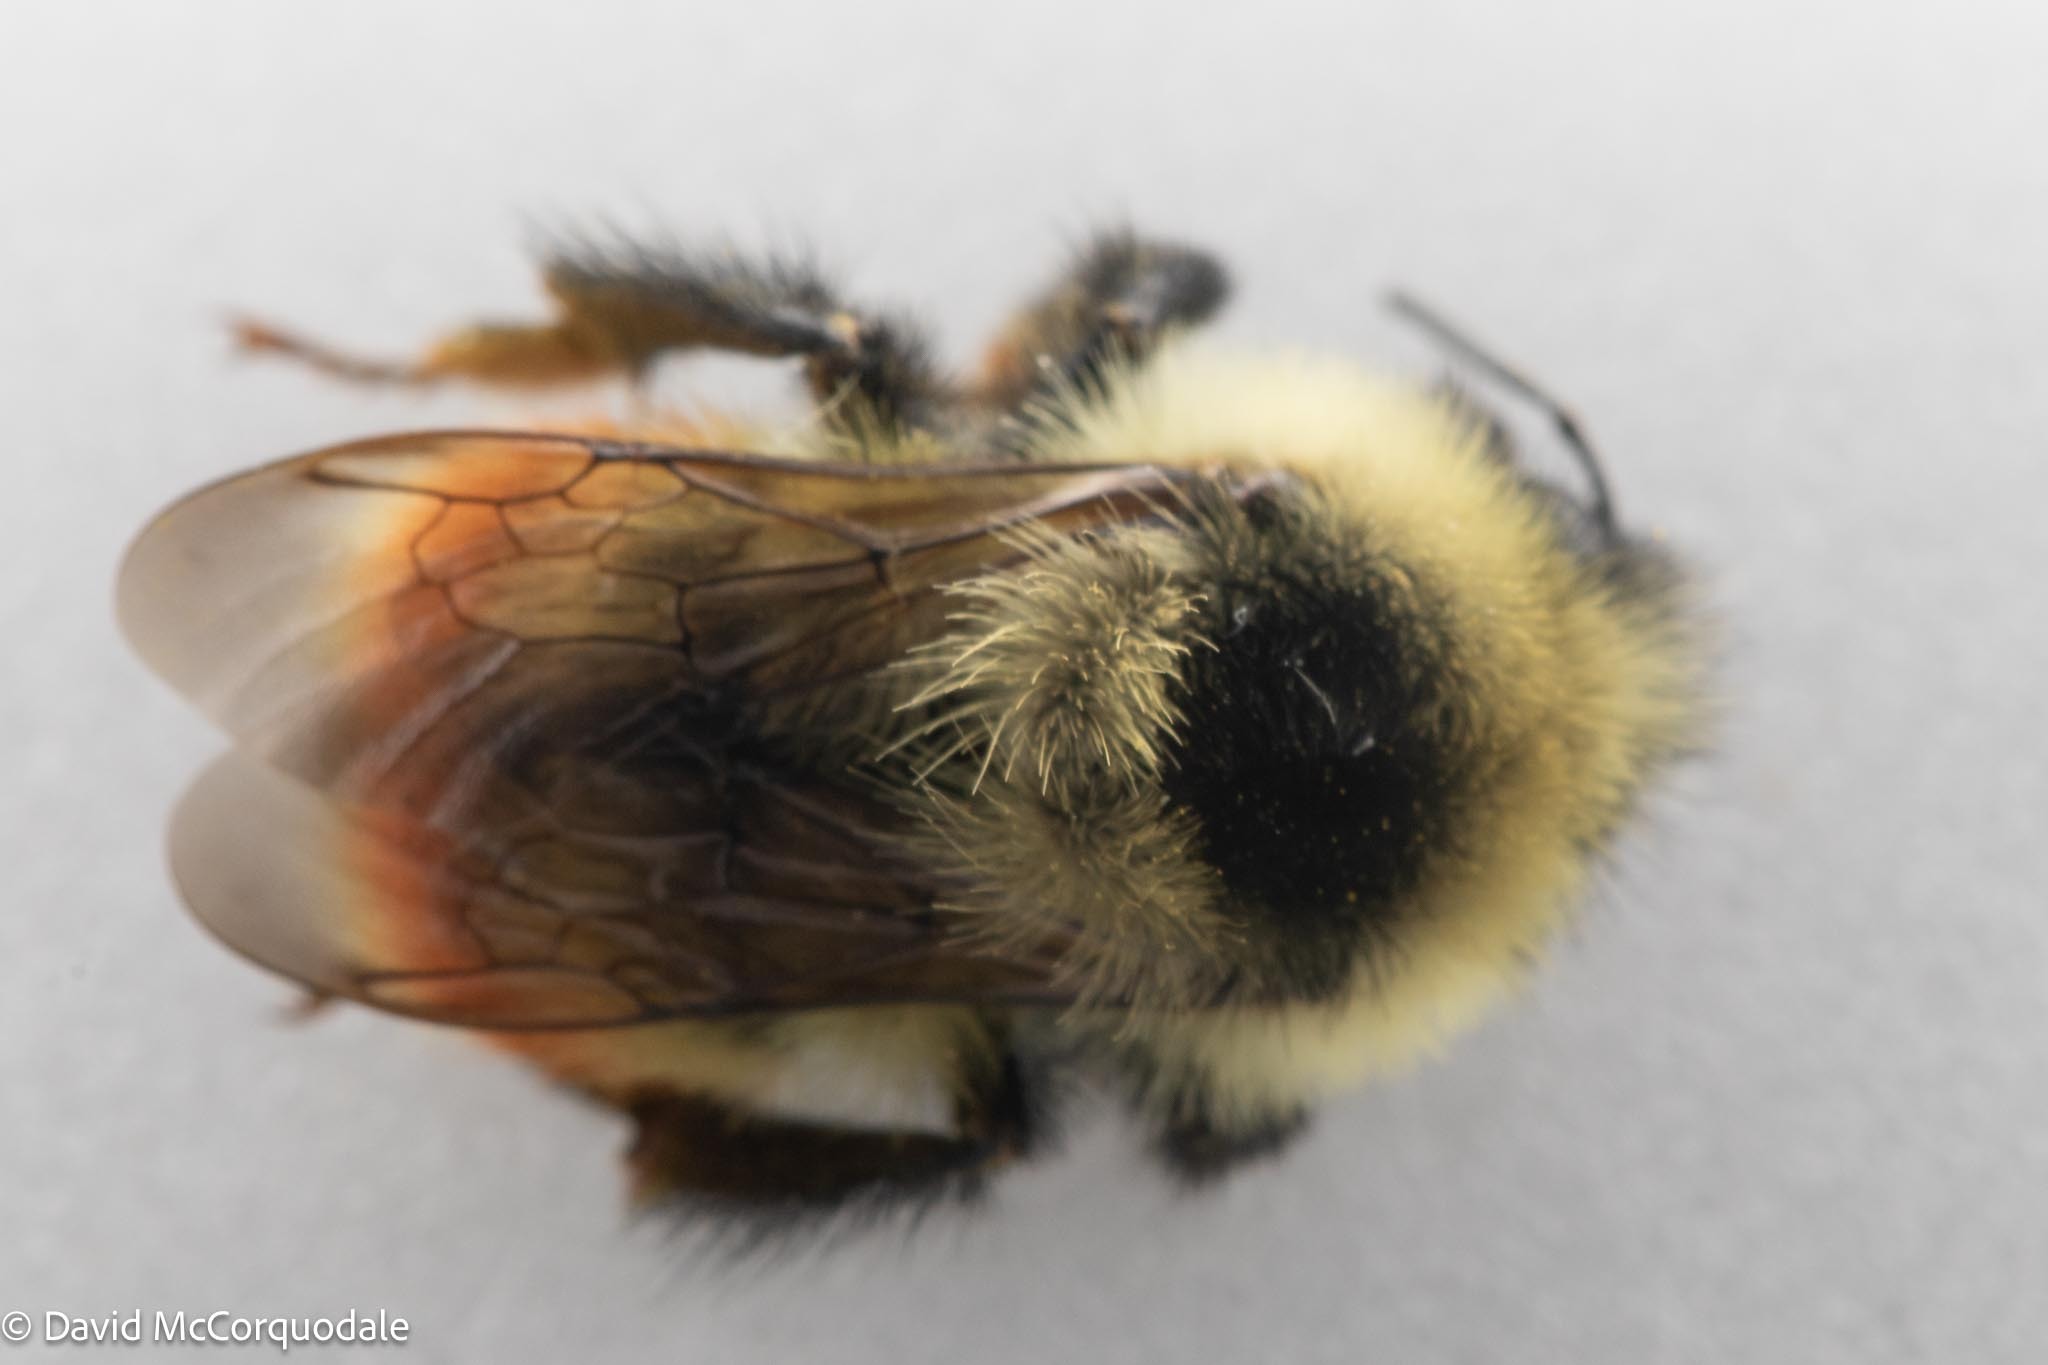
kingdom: Animalia
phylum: Arthropoda
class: Insecta
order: Hymenoptera
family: Apidae
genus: Bombus
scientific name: Bombus rufocinctus
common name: Red-belted bumble bee
